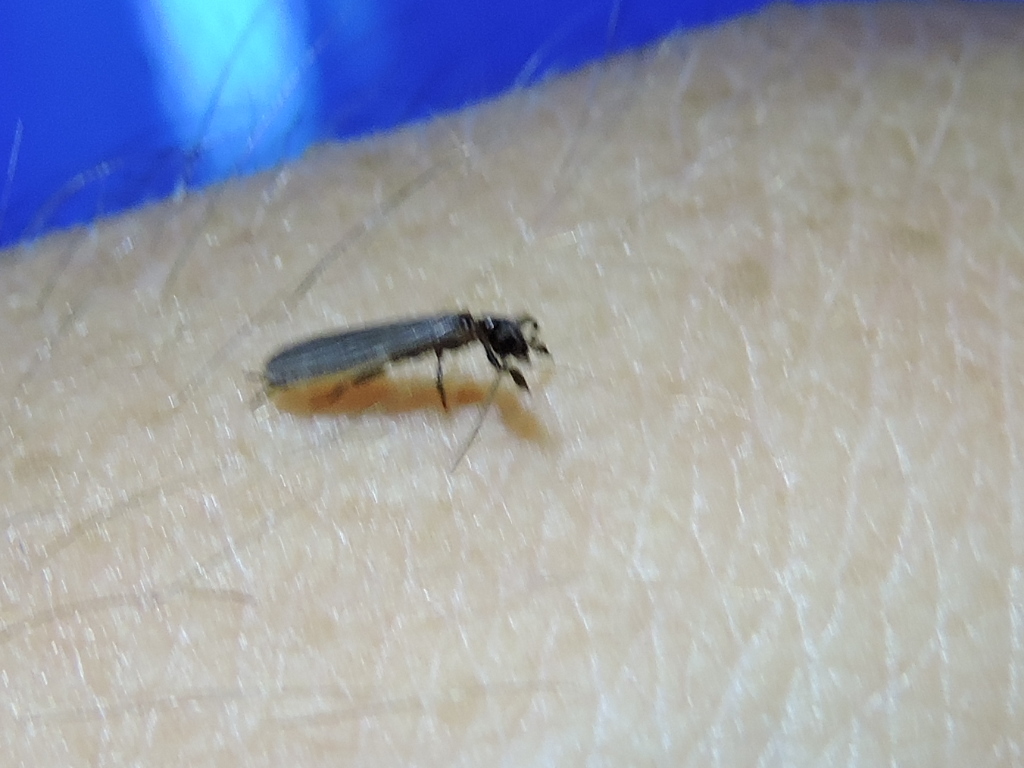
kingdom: Animalia
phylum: Arthropoda
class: Insecta
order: Embioptera
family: Oligotomidae
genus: Oligotoma
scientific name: Oligotoma nigra
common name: Black webspinner
